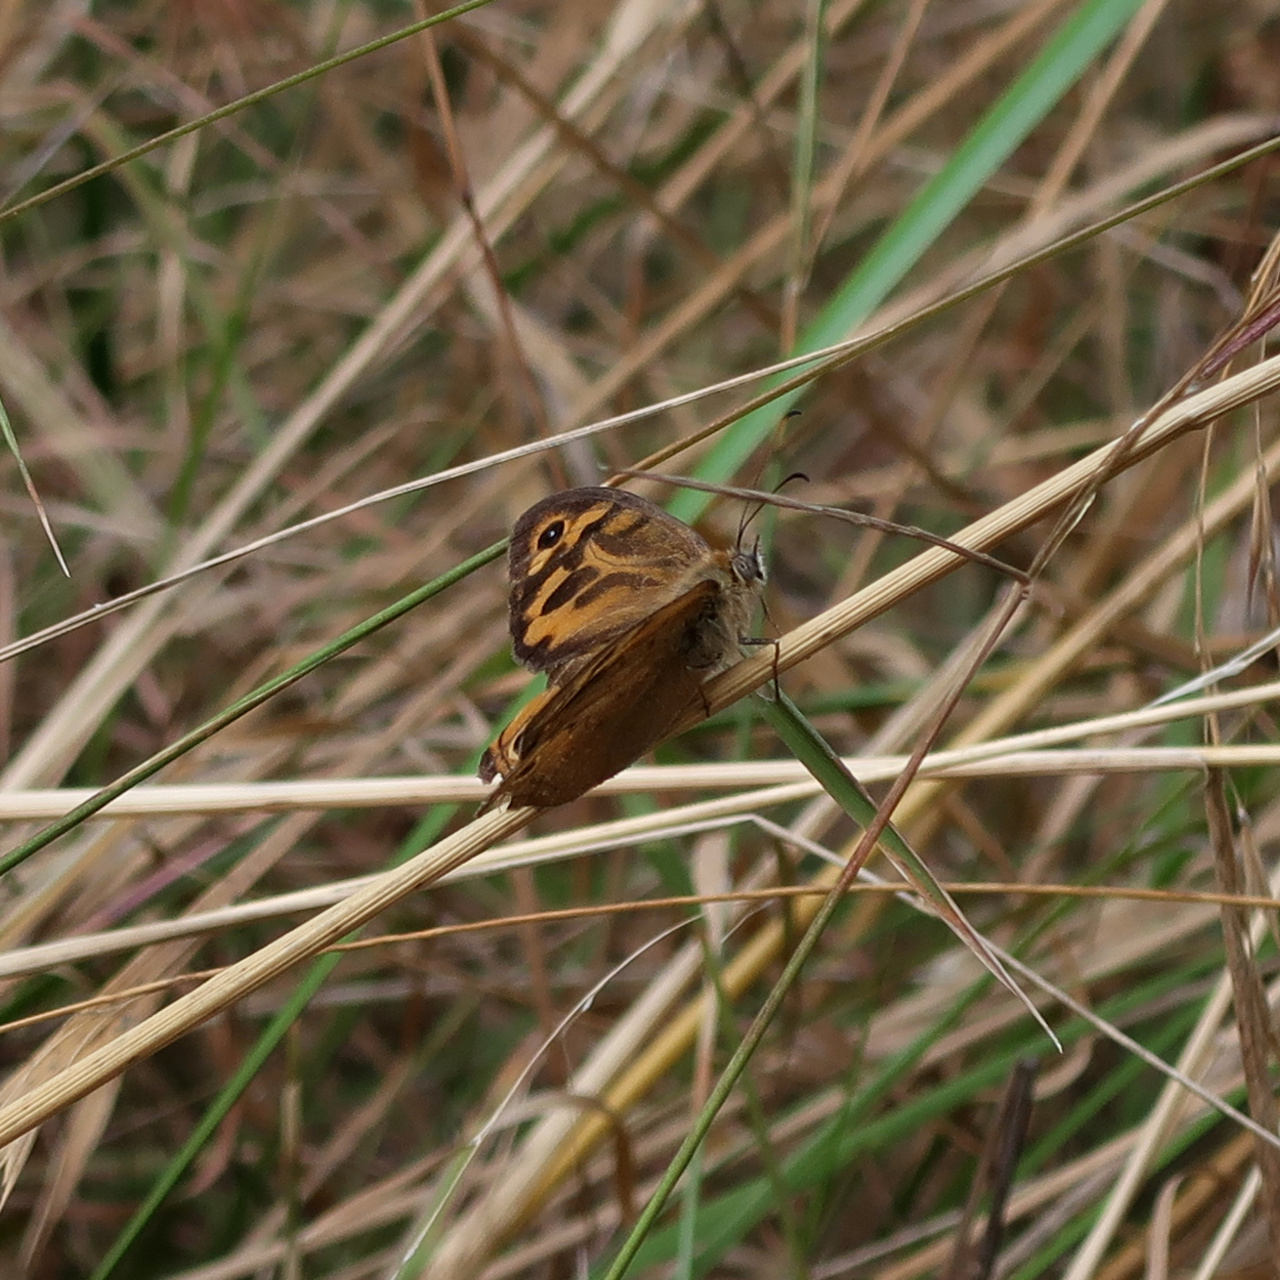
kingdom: Animalia
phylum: Arthropoda
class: Insecta
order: Lepidoptera
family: Nymphalidae
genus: Heteronympha
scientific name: Heteronympha merope
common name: Common brown
